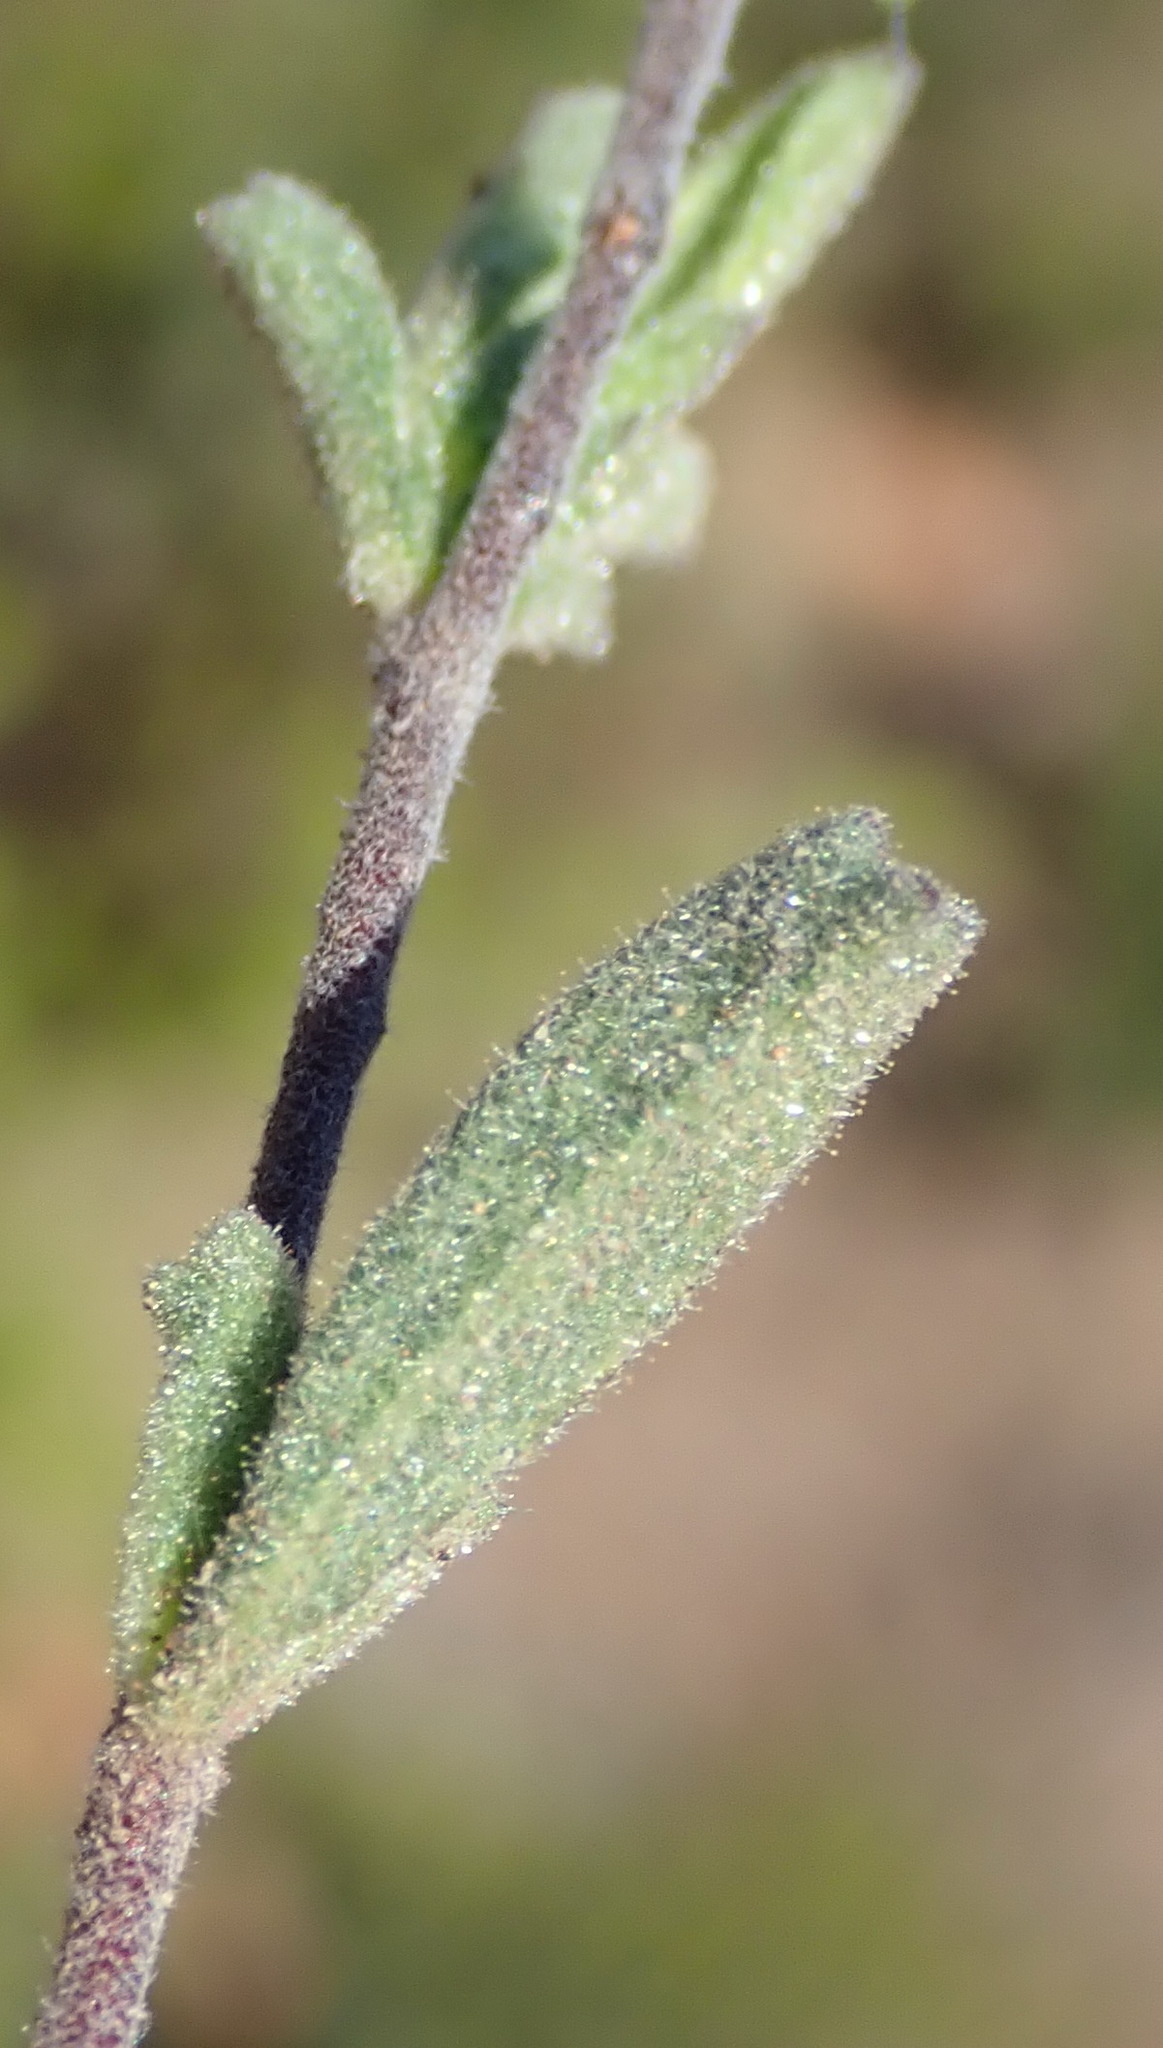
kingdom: Plantae
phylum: Tracheophyta
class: Magnoliopsida
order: Malvales
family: Malvaceae
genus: Hermannia
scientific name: Hermannia flammula
